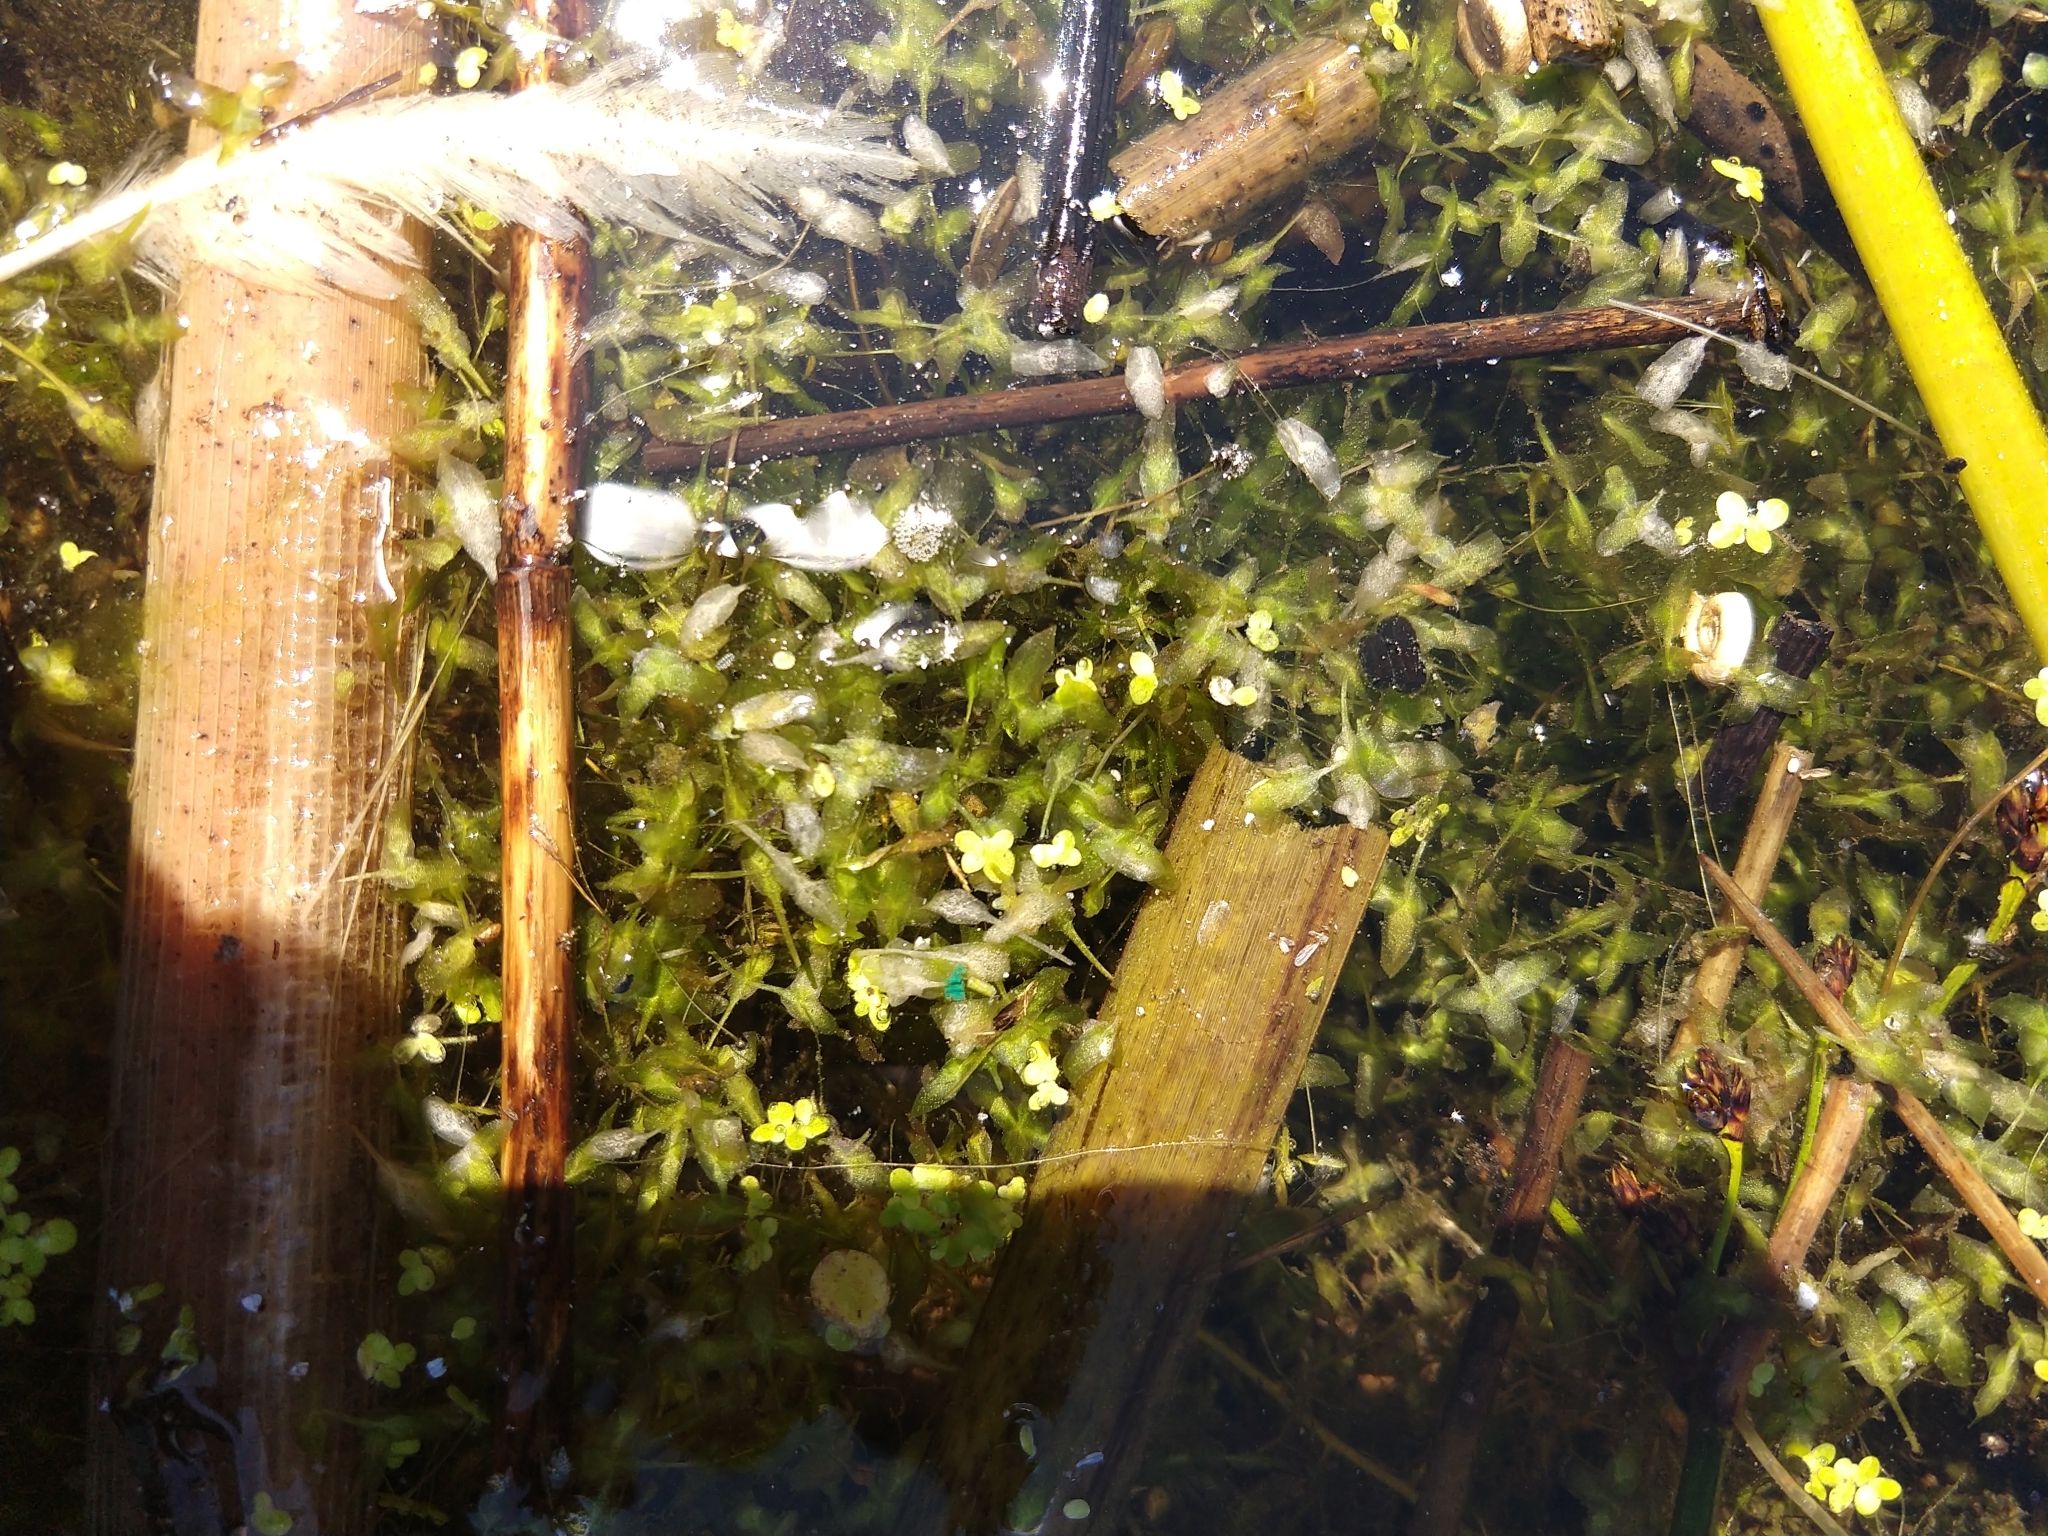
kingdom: Plantae
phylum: Tracheophyta
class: Liliopsida
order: Alismatales
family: Araceae
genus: Lemna
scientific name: Lemna trisulca
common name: Ivy-leaved duckweed
